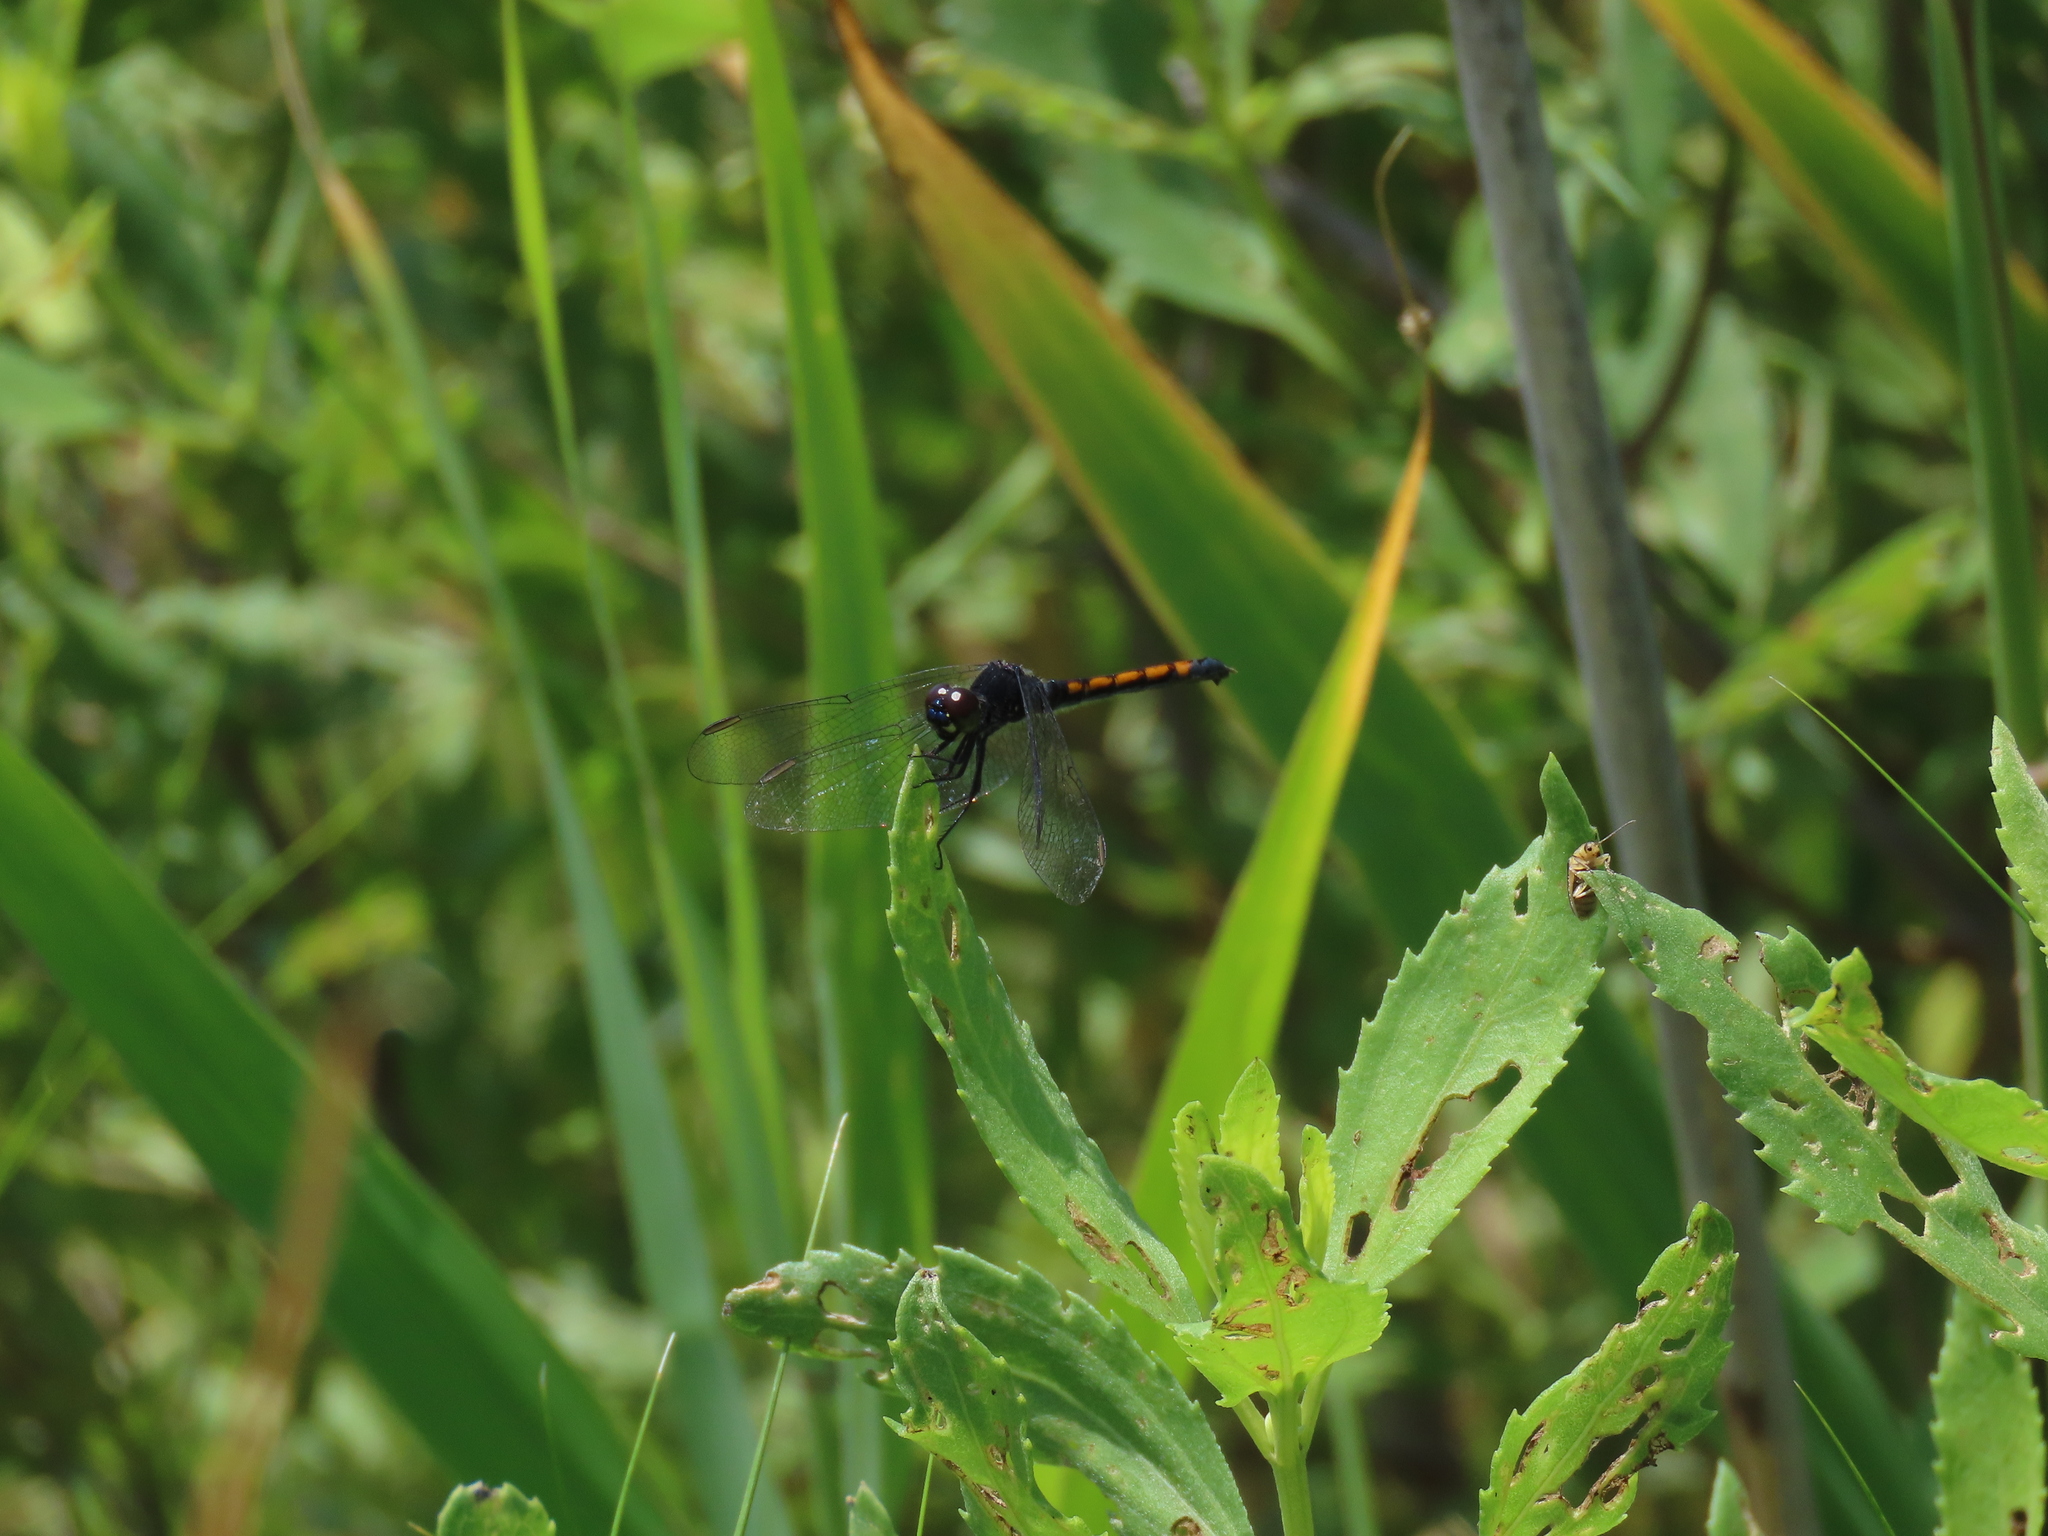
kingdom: Animalia
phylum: Arthropoda
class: Insecta
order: Odonata
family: Libellulidae
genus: Erythrodiplax
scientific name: Erythrodiplax berenice
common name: Seaside dragonlet
